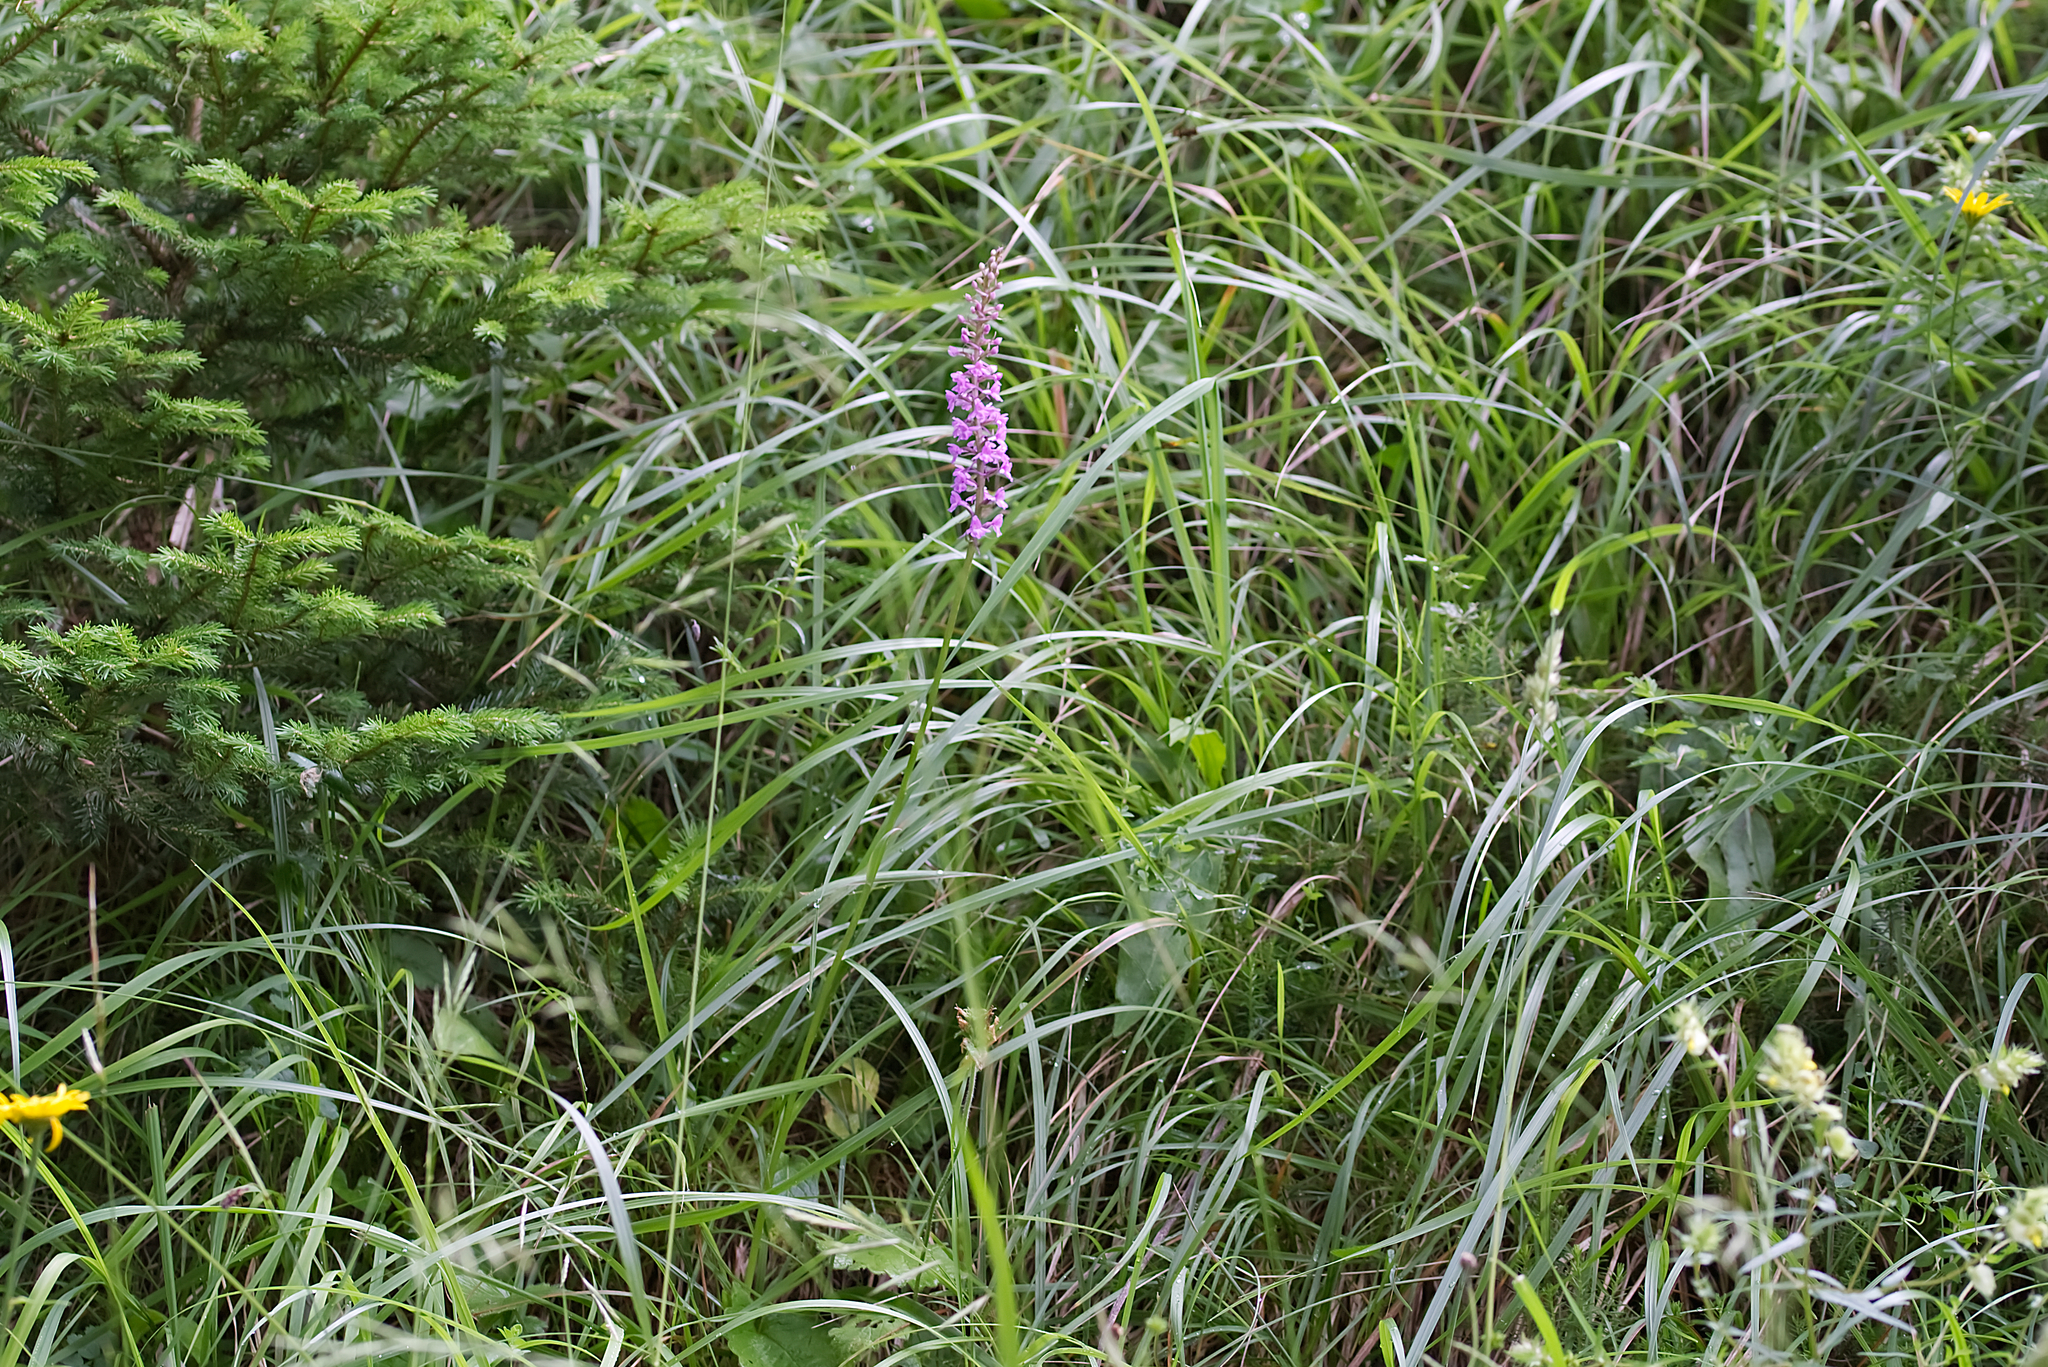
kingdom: Plantae
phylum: Tracheophyta
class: Liliopsida
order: Asparagales
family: Orchidaceae
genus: Gymnadenia
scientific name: Gymnadenia conopsea
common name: Fragrant orchid
